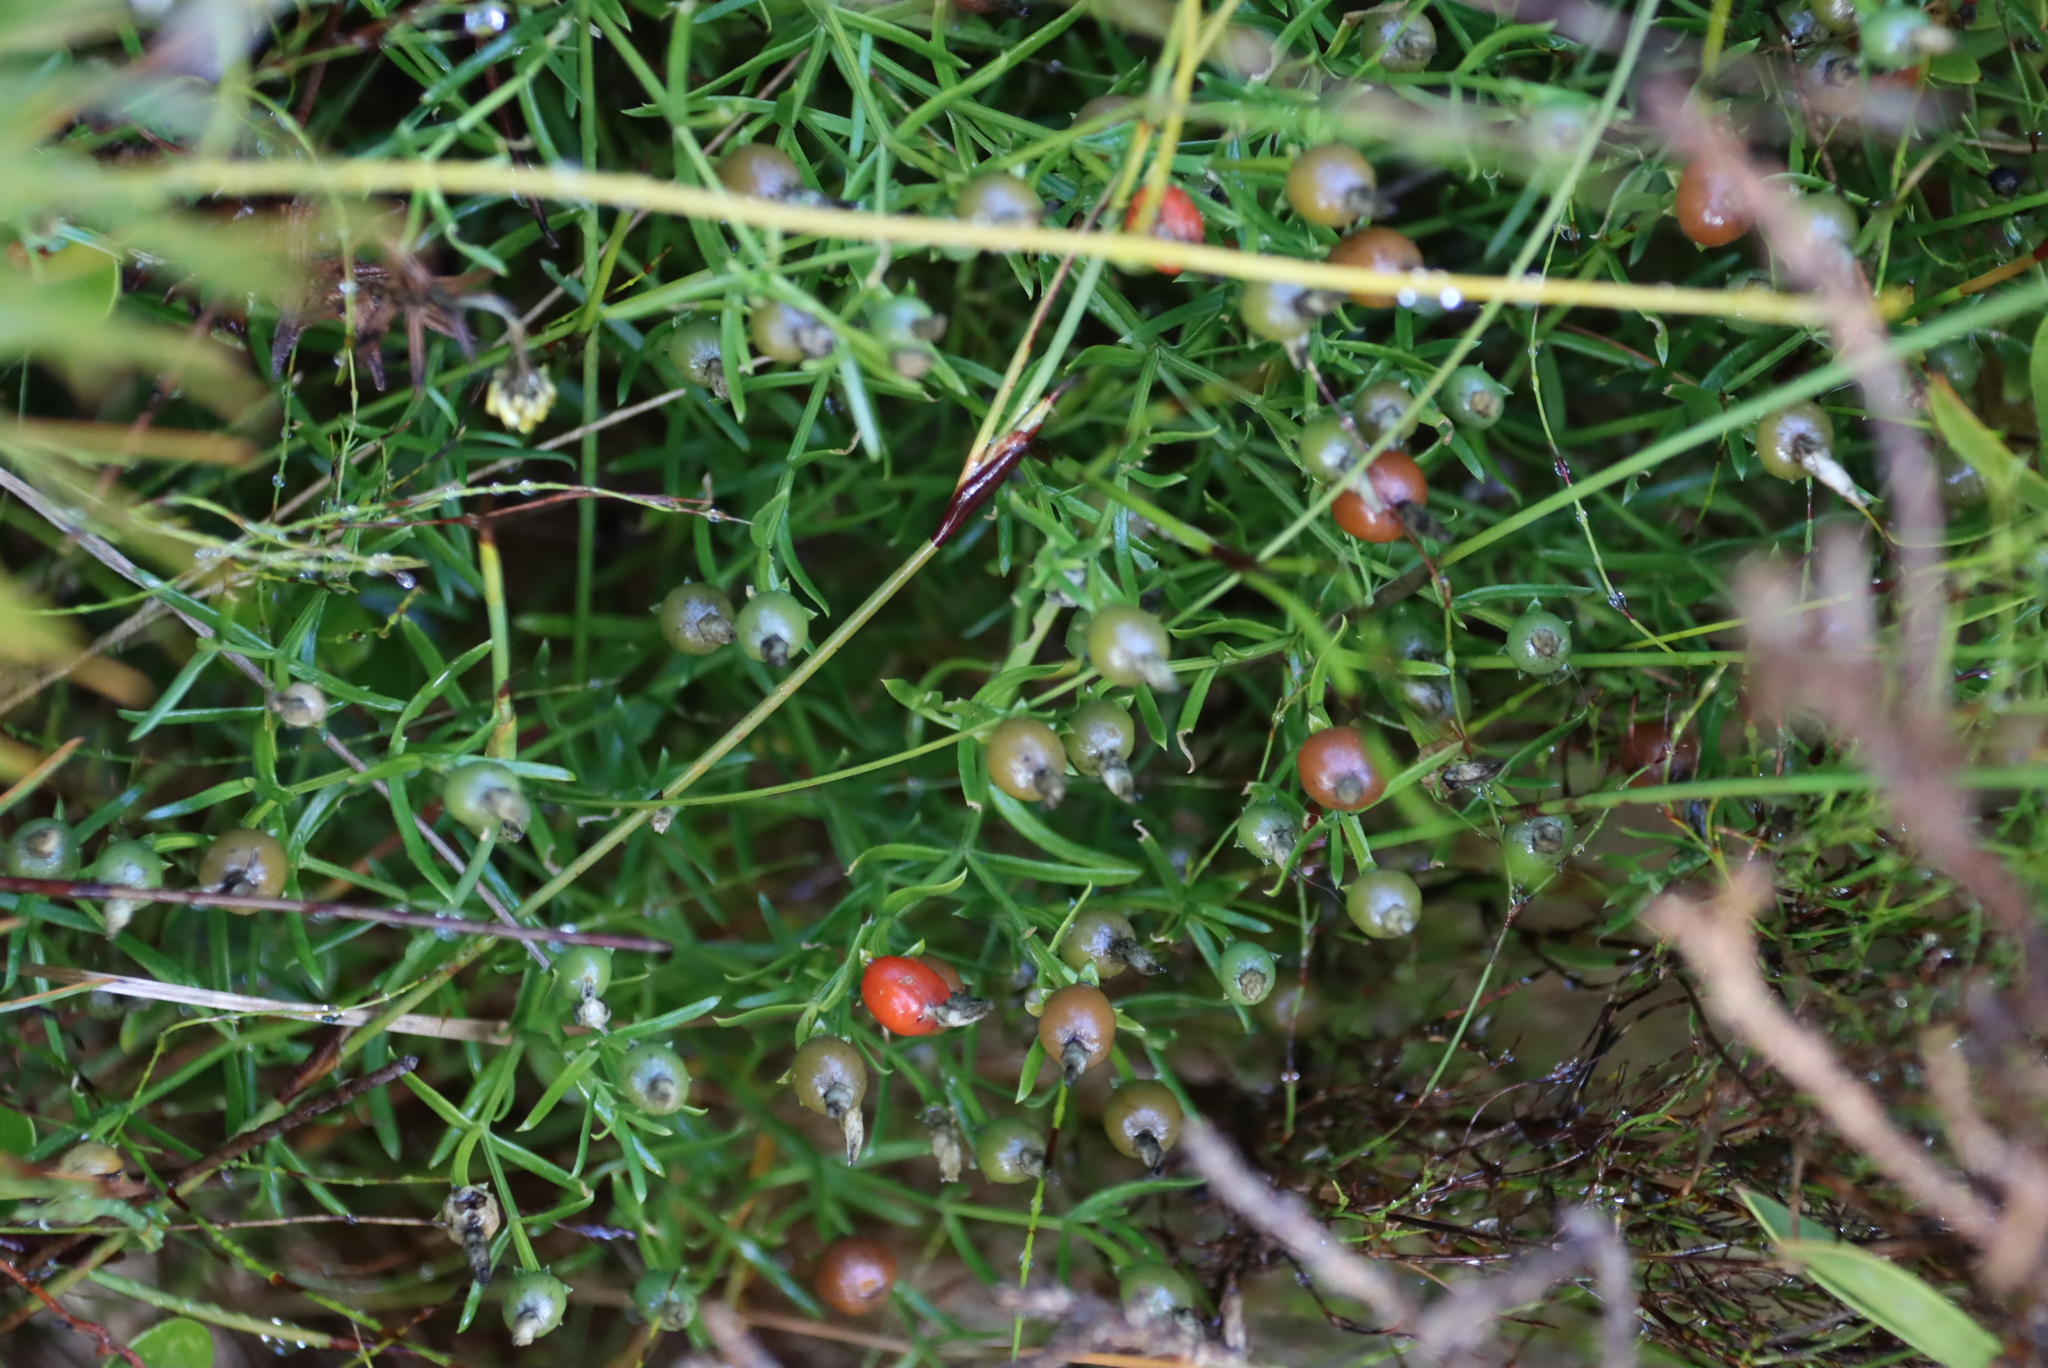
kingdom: Plantae
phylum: Tracheophyta
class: Magnoliopsida
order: Gentianales
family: Gentianaceae
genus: Chironia
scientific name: Chironia baccifera
